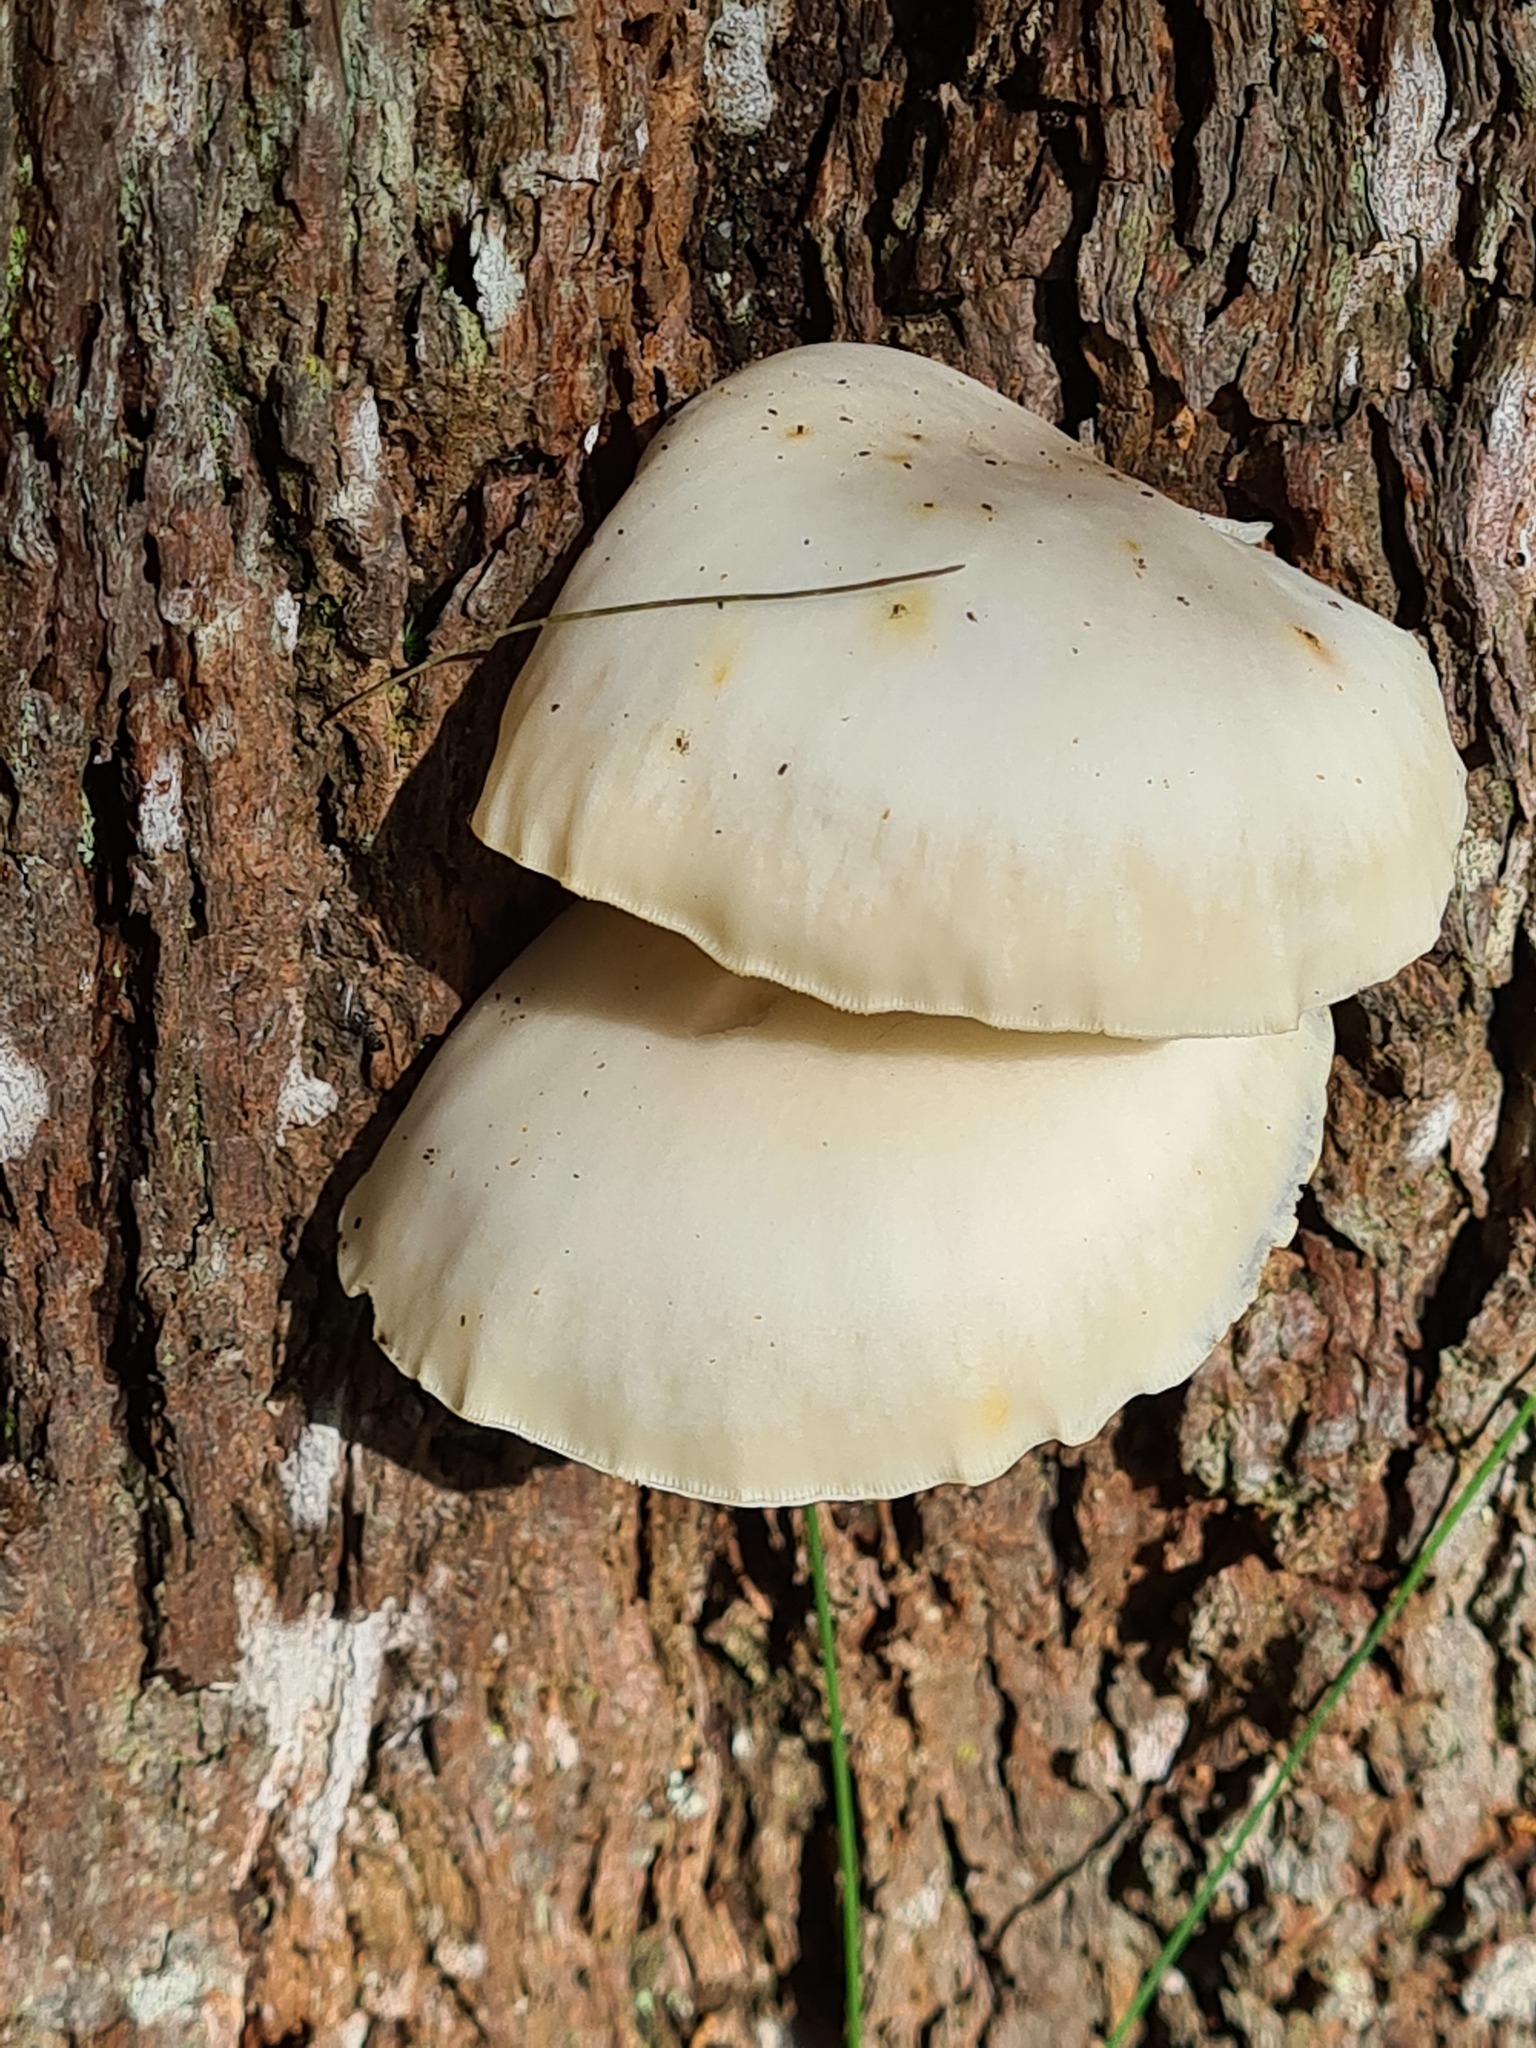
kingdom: Fungi
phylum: Basidiomycota
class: Agaricomycetes
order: Agaricales
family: Omphalotaceae
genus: Omphalotus
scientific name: Omphalotus nidiformis
